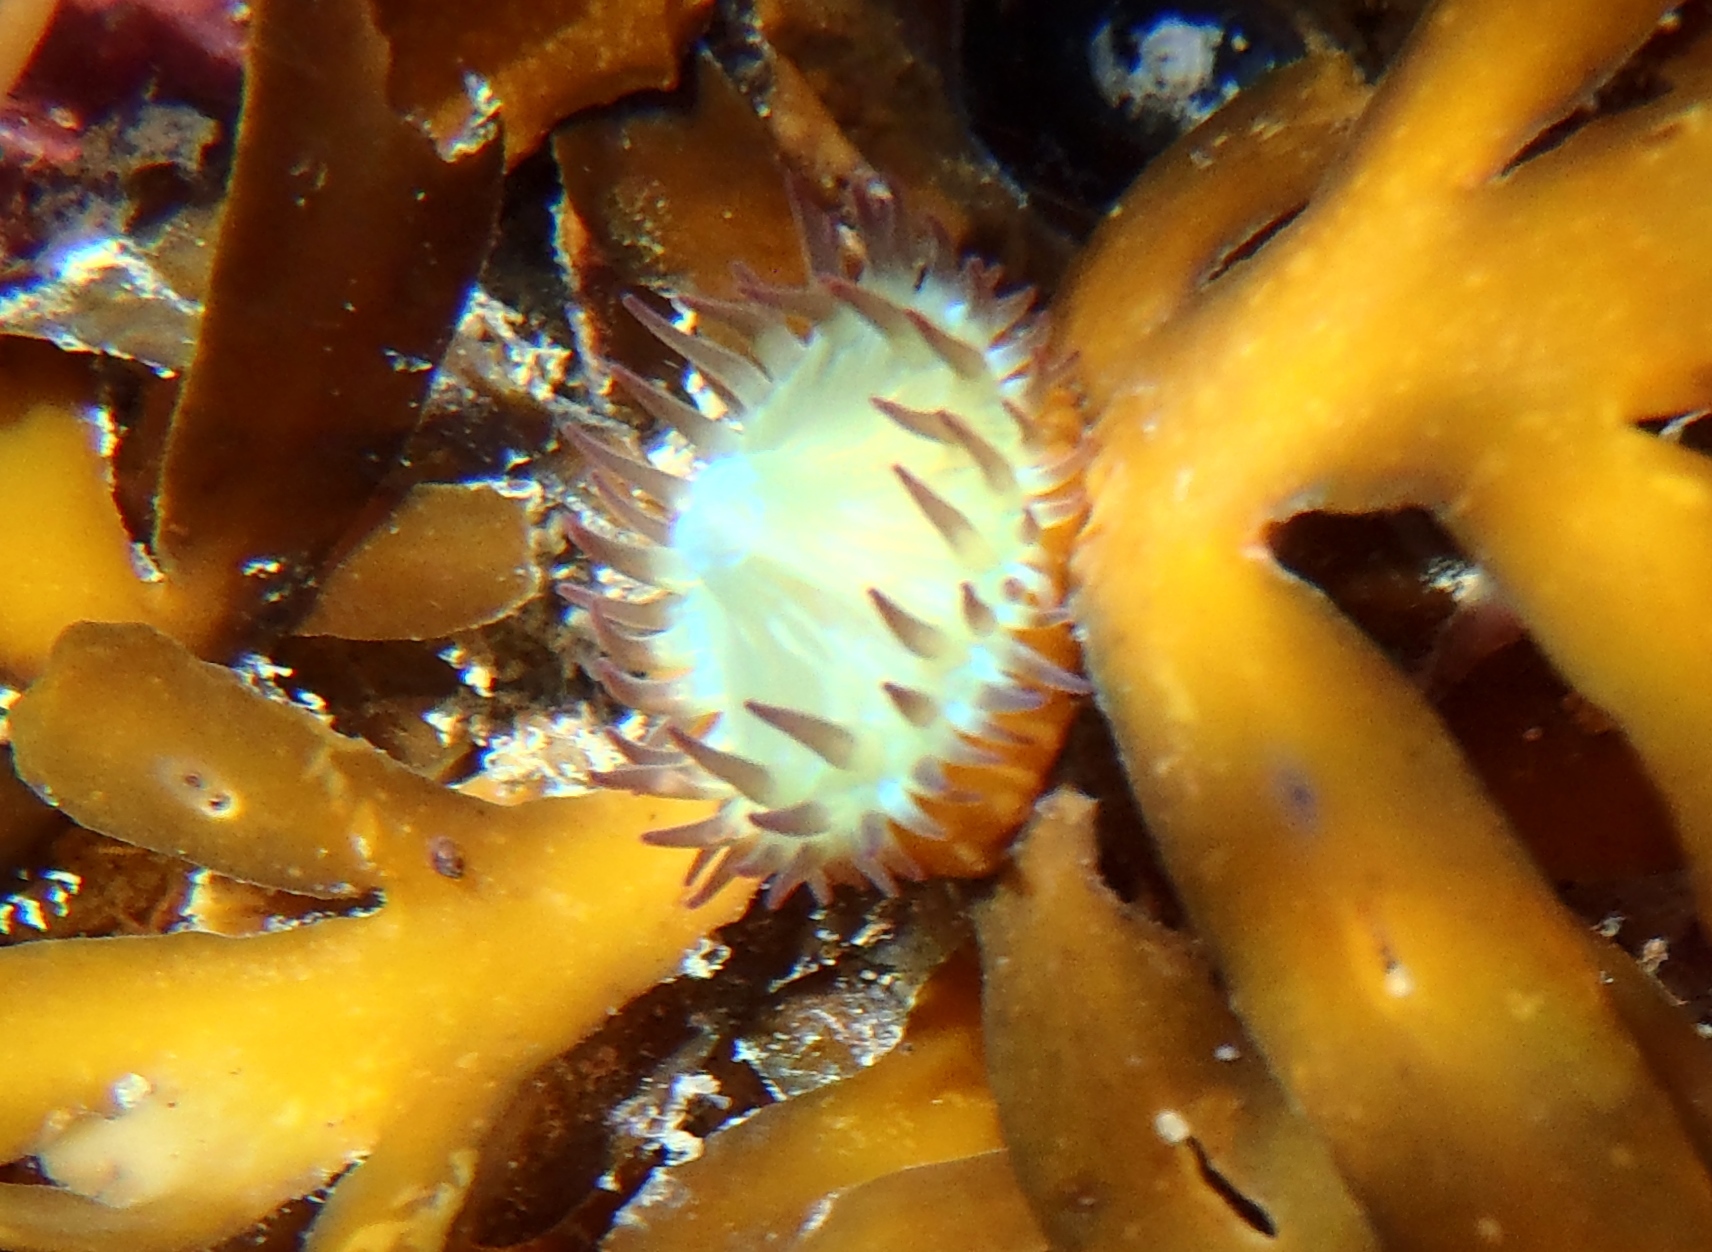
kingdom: Animalia
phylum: Cnidaria
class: Anthozoa
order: Actiniaria
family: Hormathiidae
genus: Handactis
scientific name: Handactis nutrix
